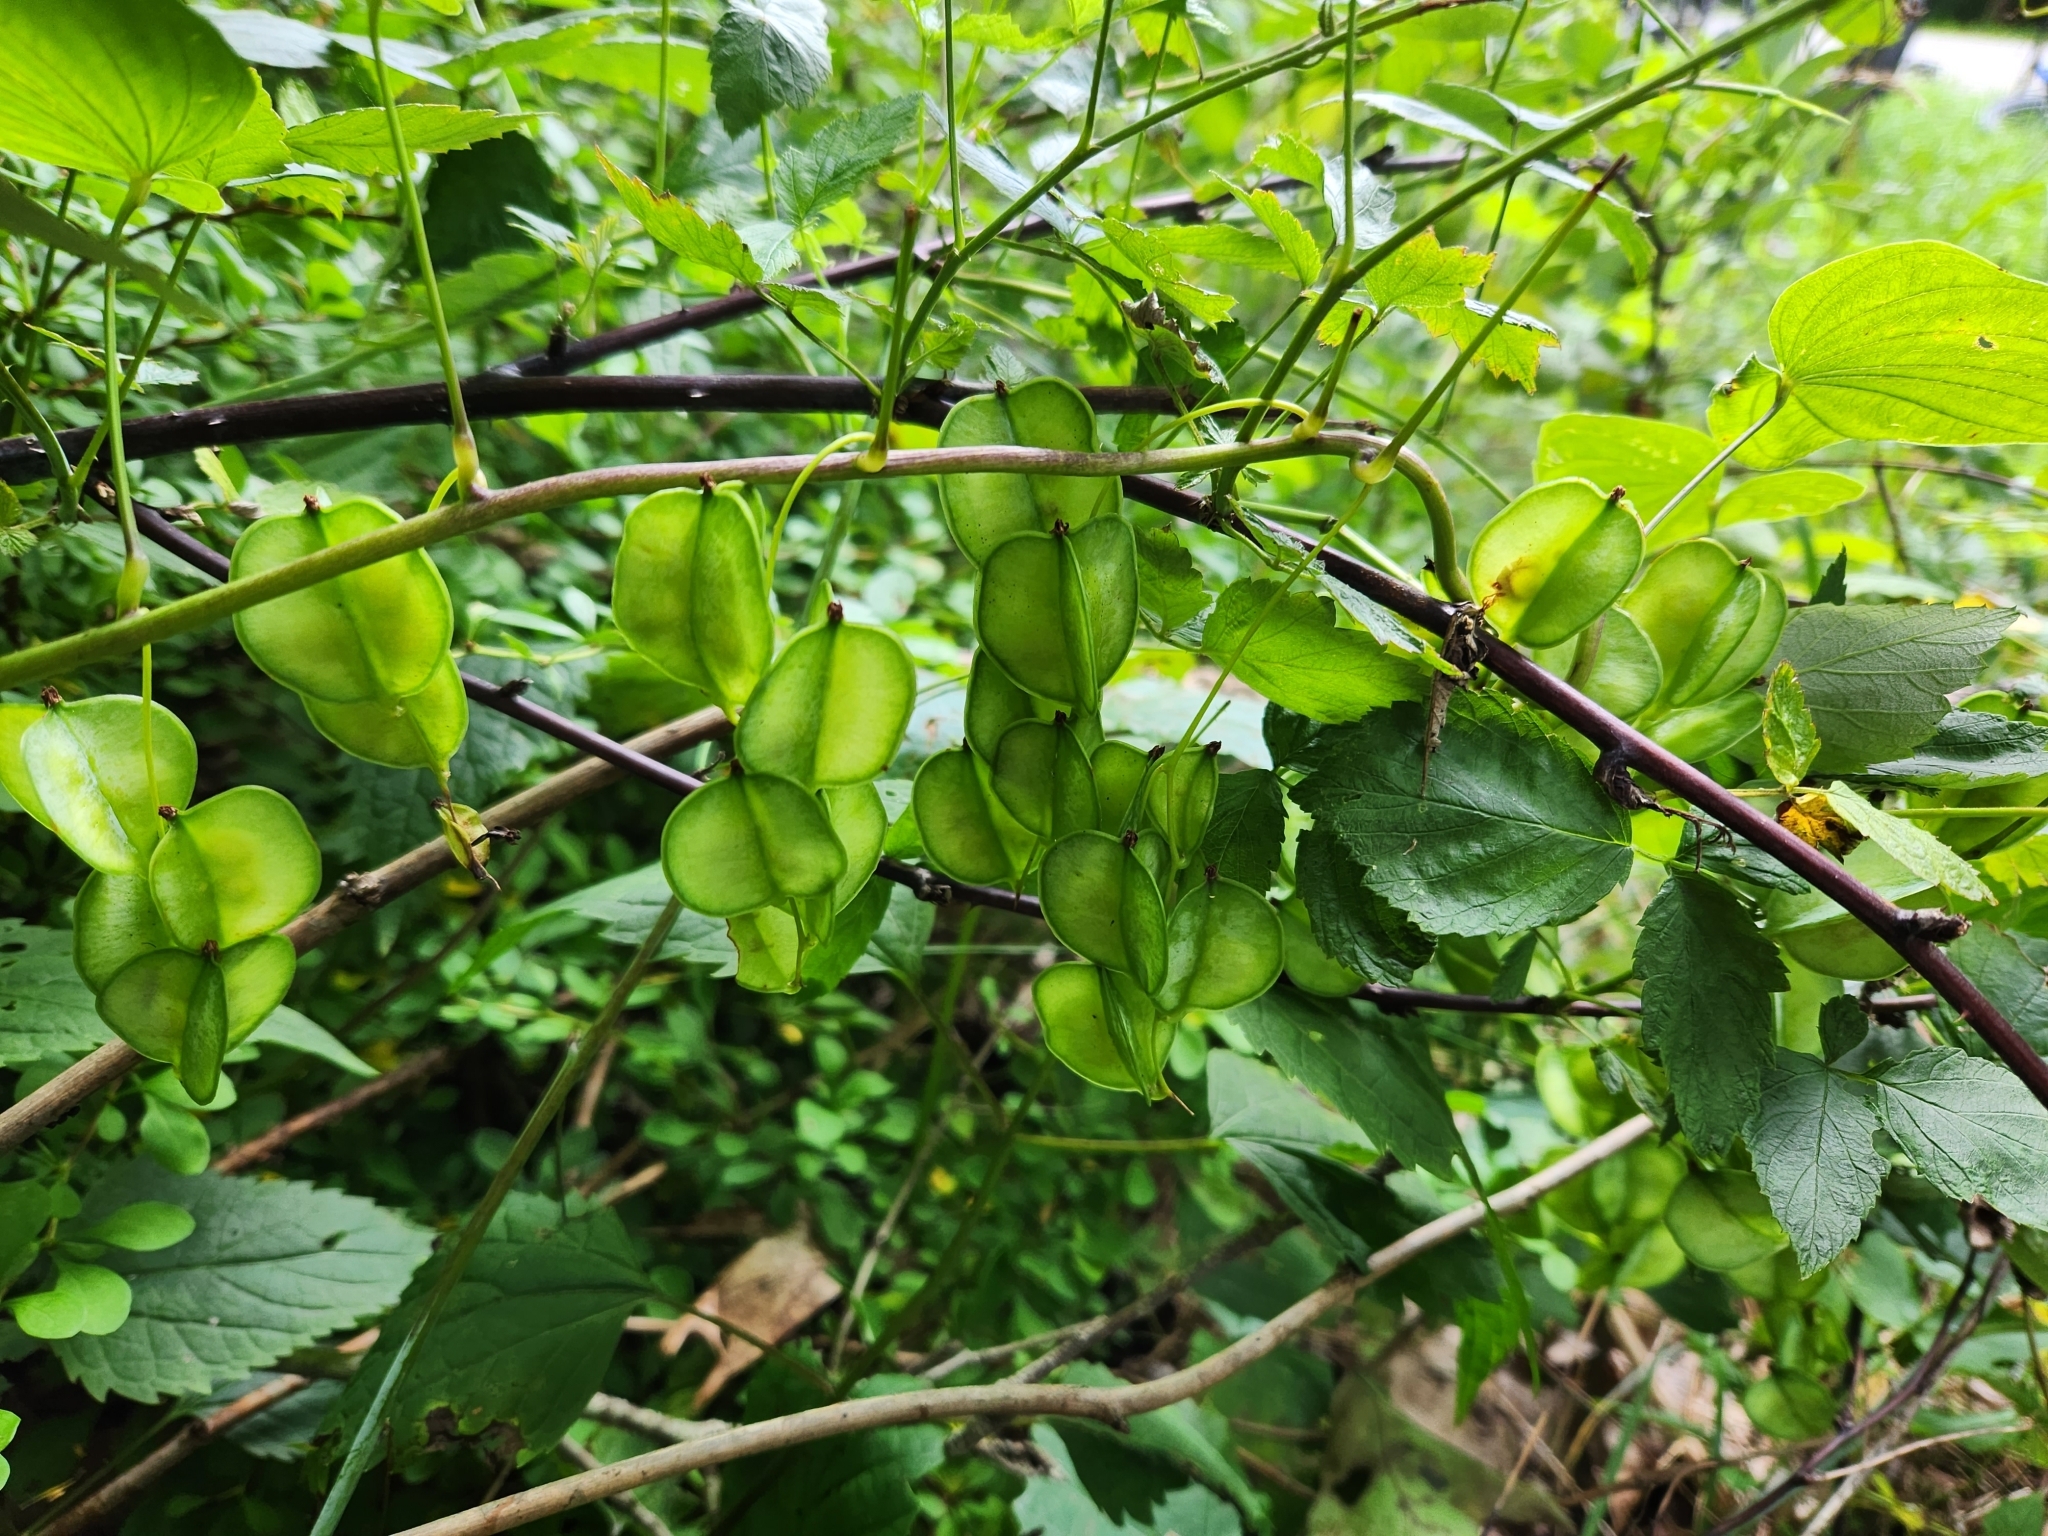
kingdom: Plantae
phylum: Tracheophyta
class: Liliopsida
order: Dioscoreales
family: Dioscoreaceae
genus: Dioscorea
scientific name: Dioscorea villosa
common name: Wild yam
